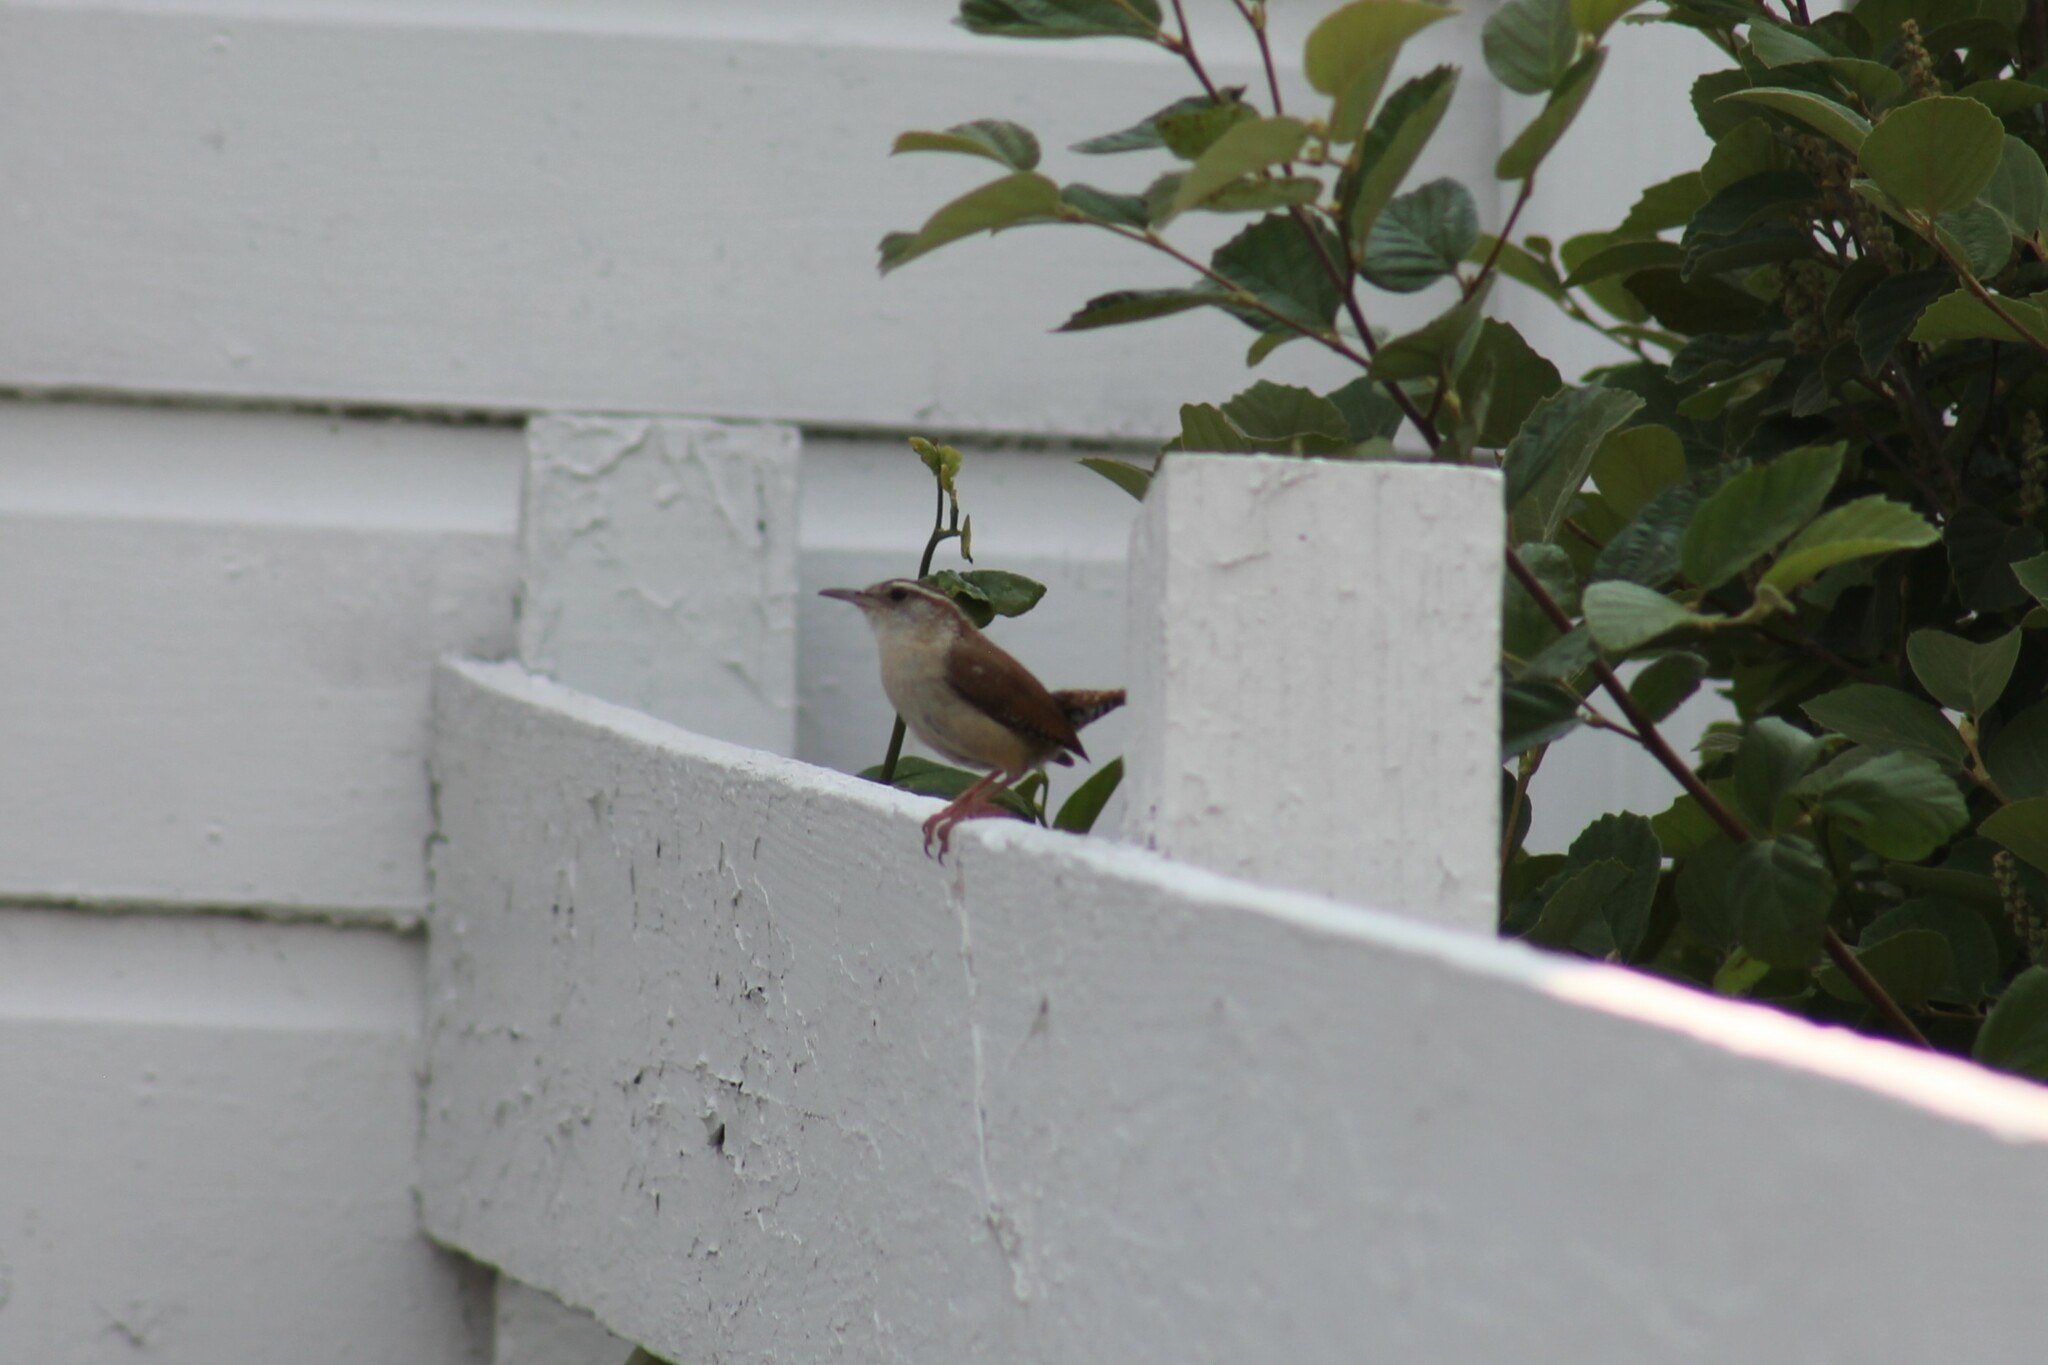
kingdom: Animalia
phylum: Chordata
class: Aves
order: Passeriformes
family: Troglodytidae
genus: Thryothorus
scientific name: Thryothorus ludovicianus
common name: Carolina wren
